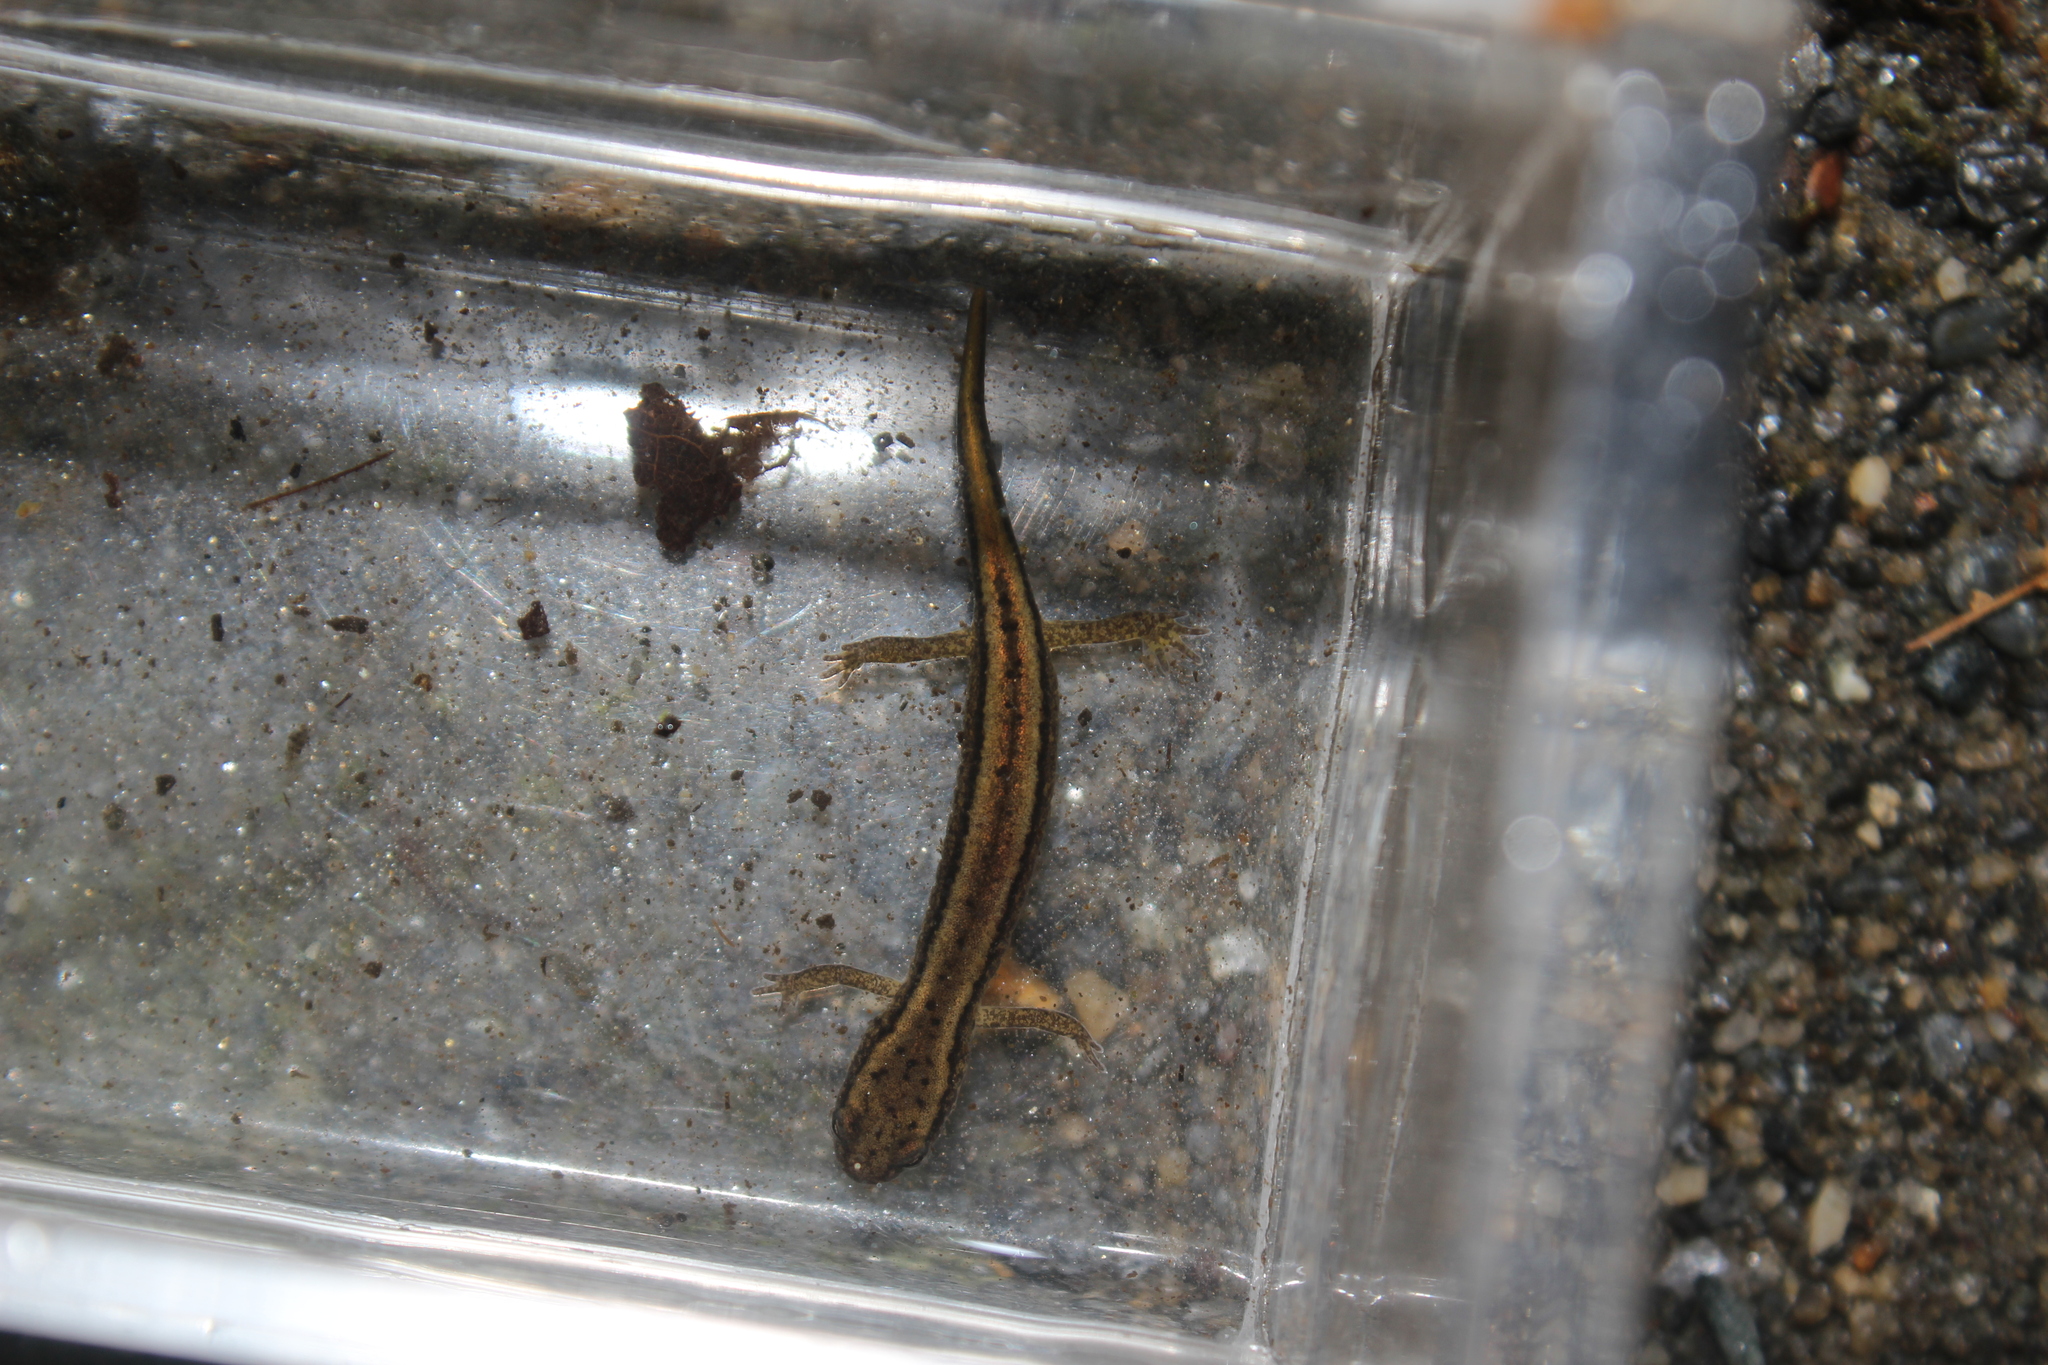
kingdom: Animalia
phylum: Chordata
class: Amphibia
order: Caudata
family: Plethodontidae
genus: Eurycea
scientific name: Eurycea bislineata
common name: Northern two-lined salamander
